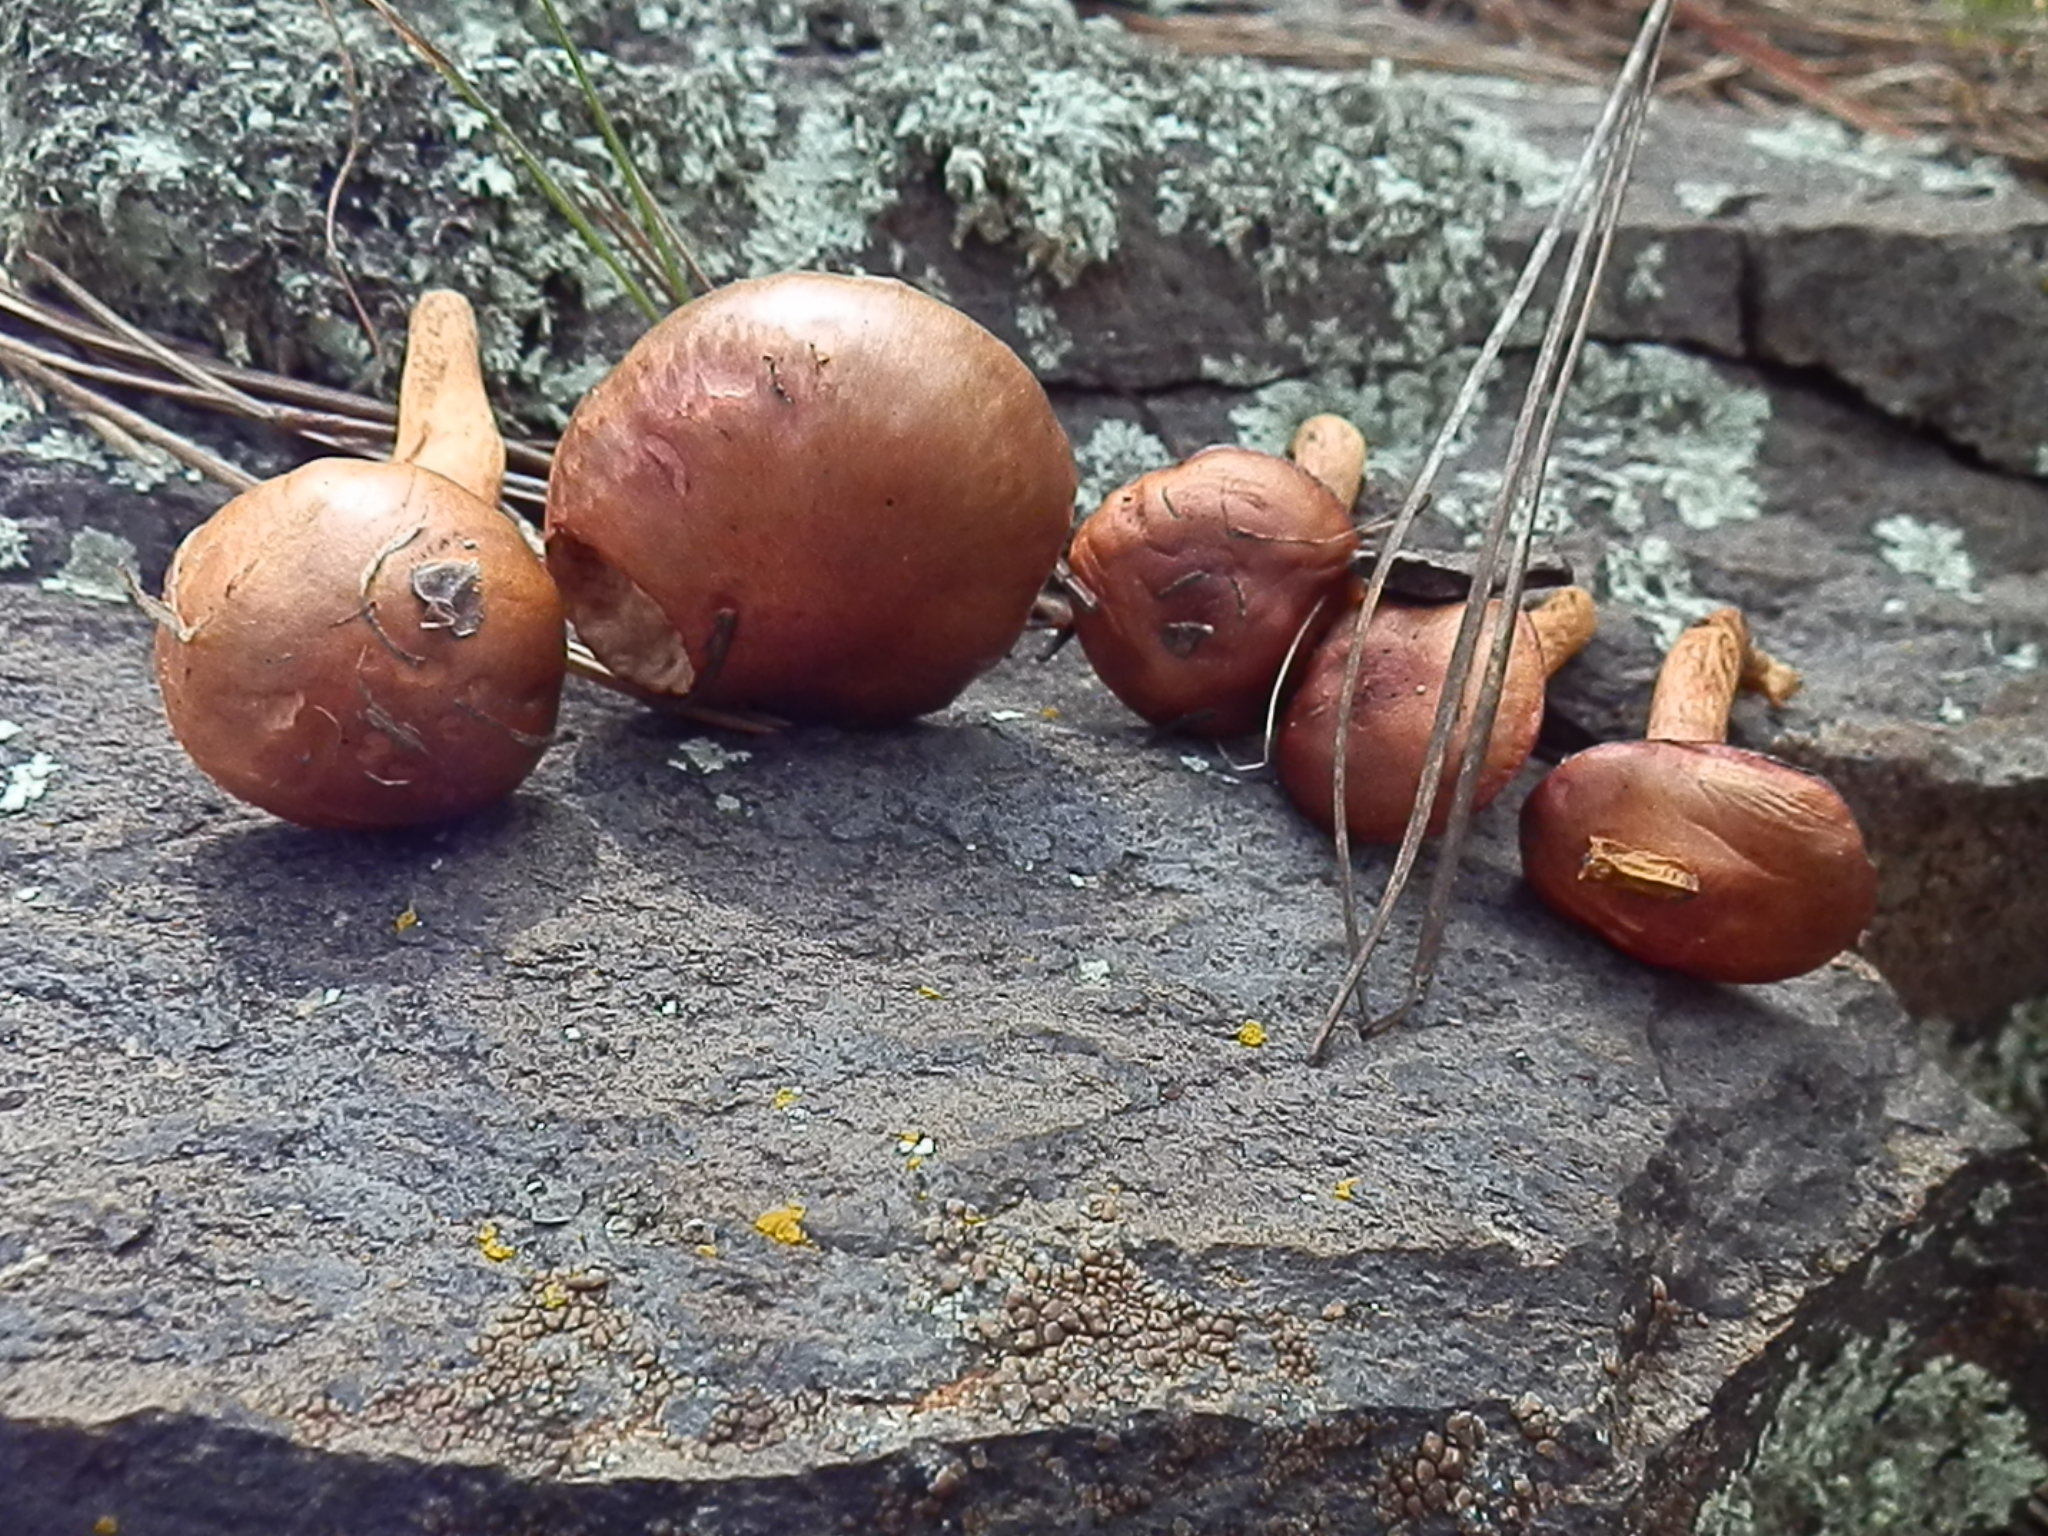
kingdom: Fungi
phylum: Basidiomycota
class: Agaricomycetes
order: Boletales
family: Gomphidiaceae
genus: Chroogomphus
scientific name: Chroogomphus vinicolor
